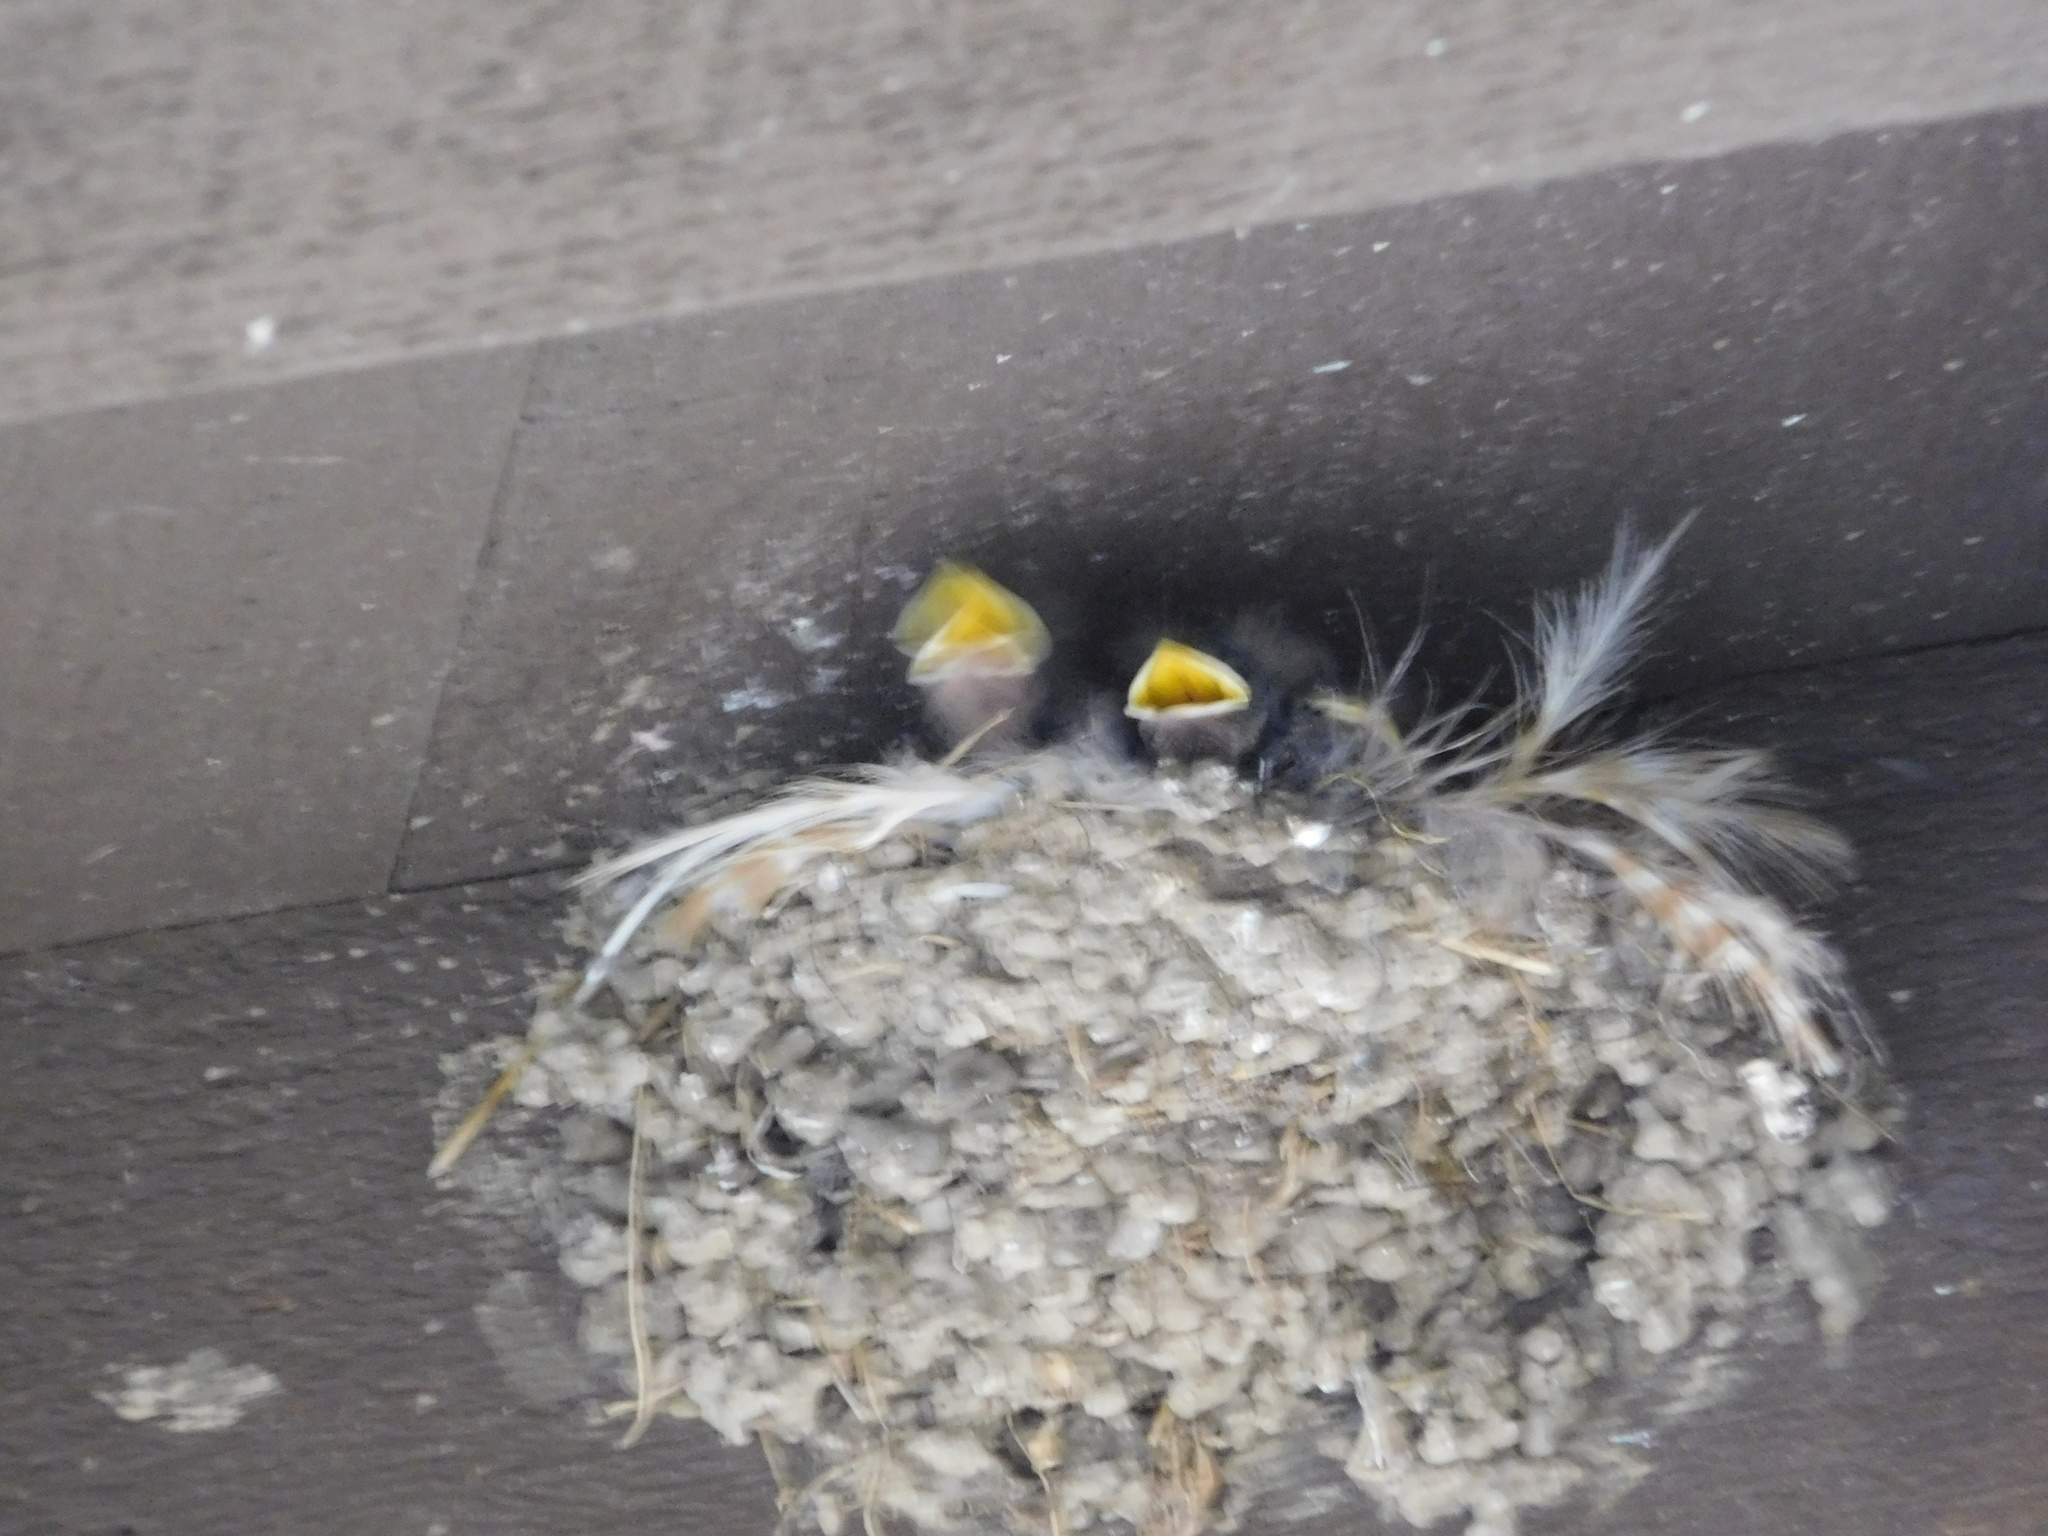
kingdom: Animalia
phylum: Chordata
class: Aves
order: Passeriformes
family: Hirundinidae
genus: Hirundo
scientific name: Hirundo rustica
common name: Barn swallow
